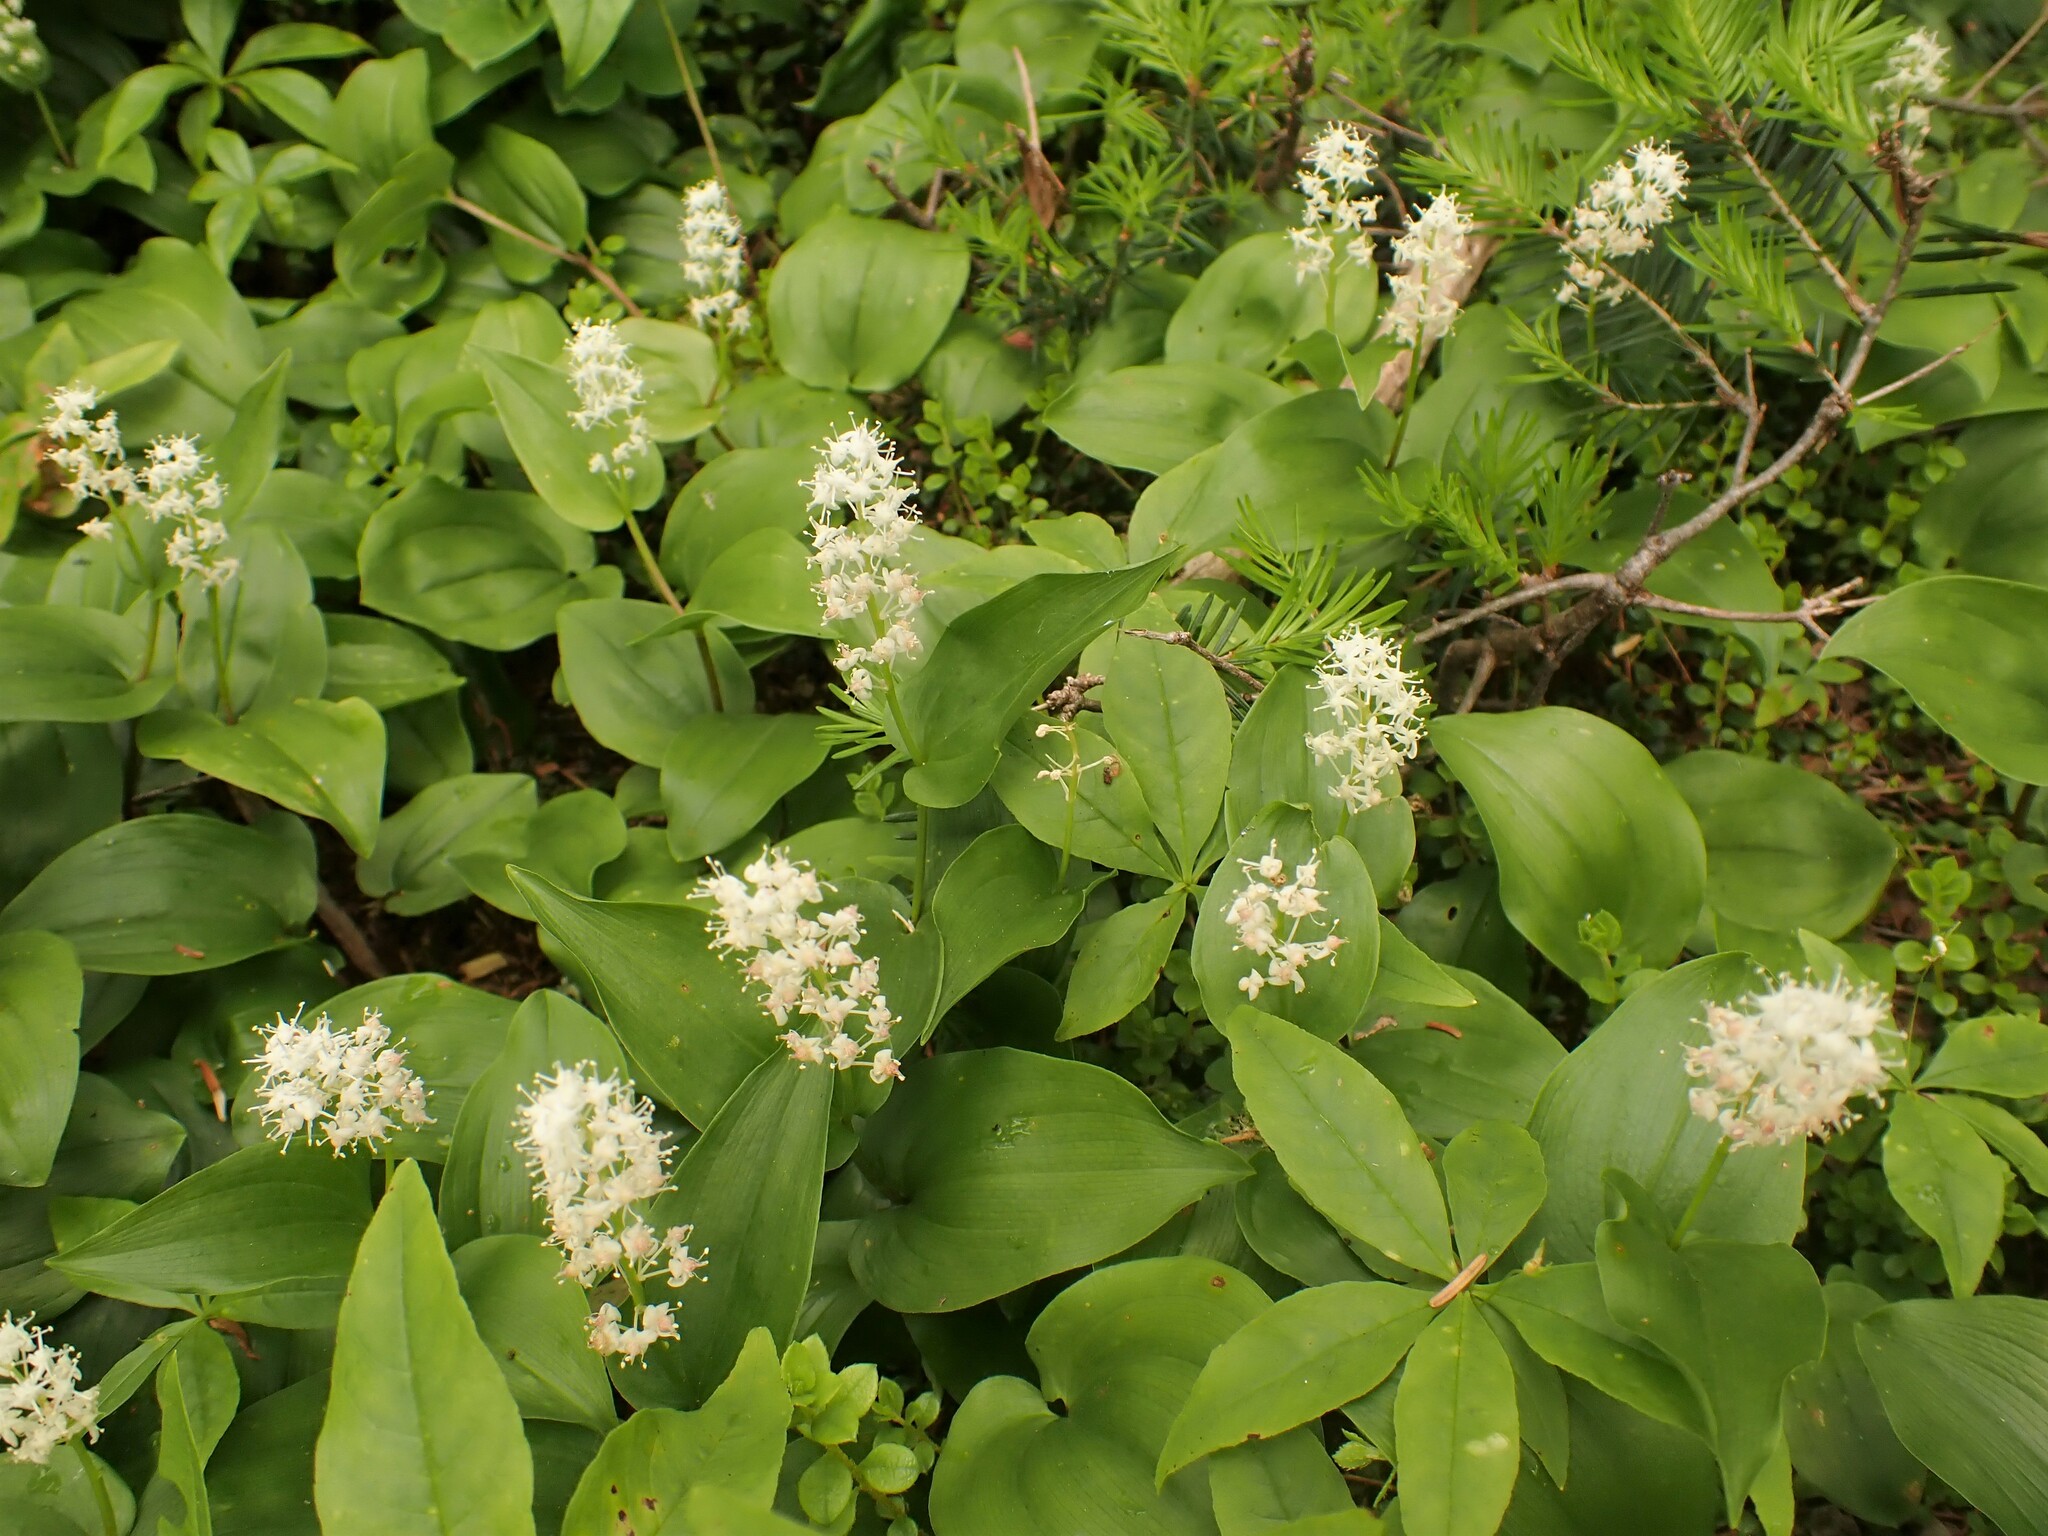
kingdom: Plantae
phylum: Tracheophyta
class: Liliopsida
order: Asparagales
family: Asparagaceae
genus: Maianthemum
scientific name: Maianthemum canadense
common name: False lily-of-the-valley
